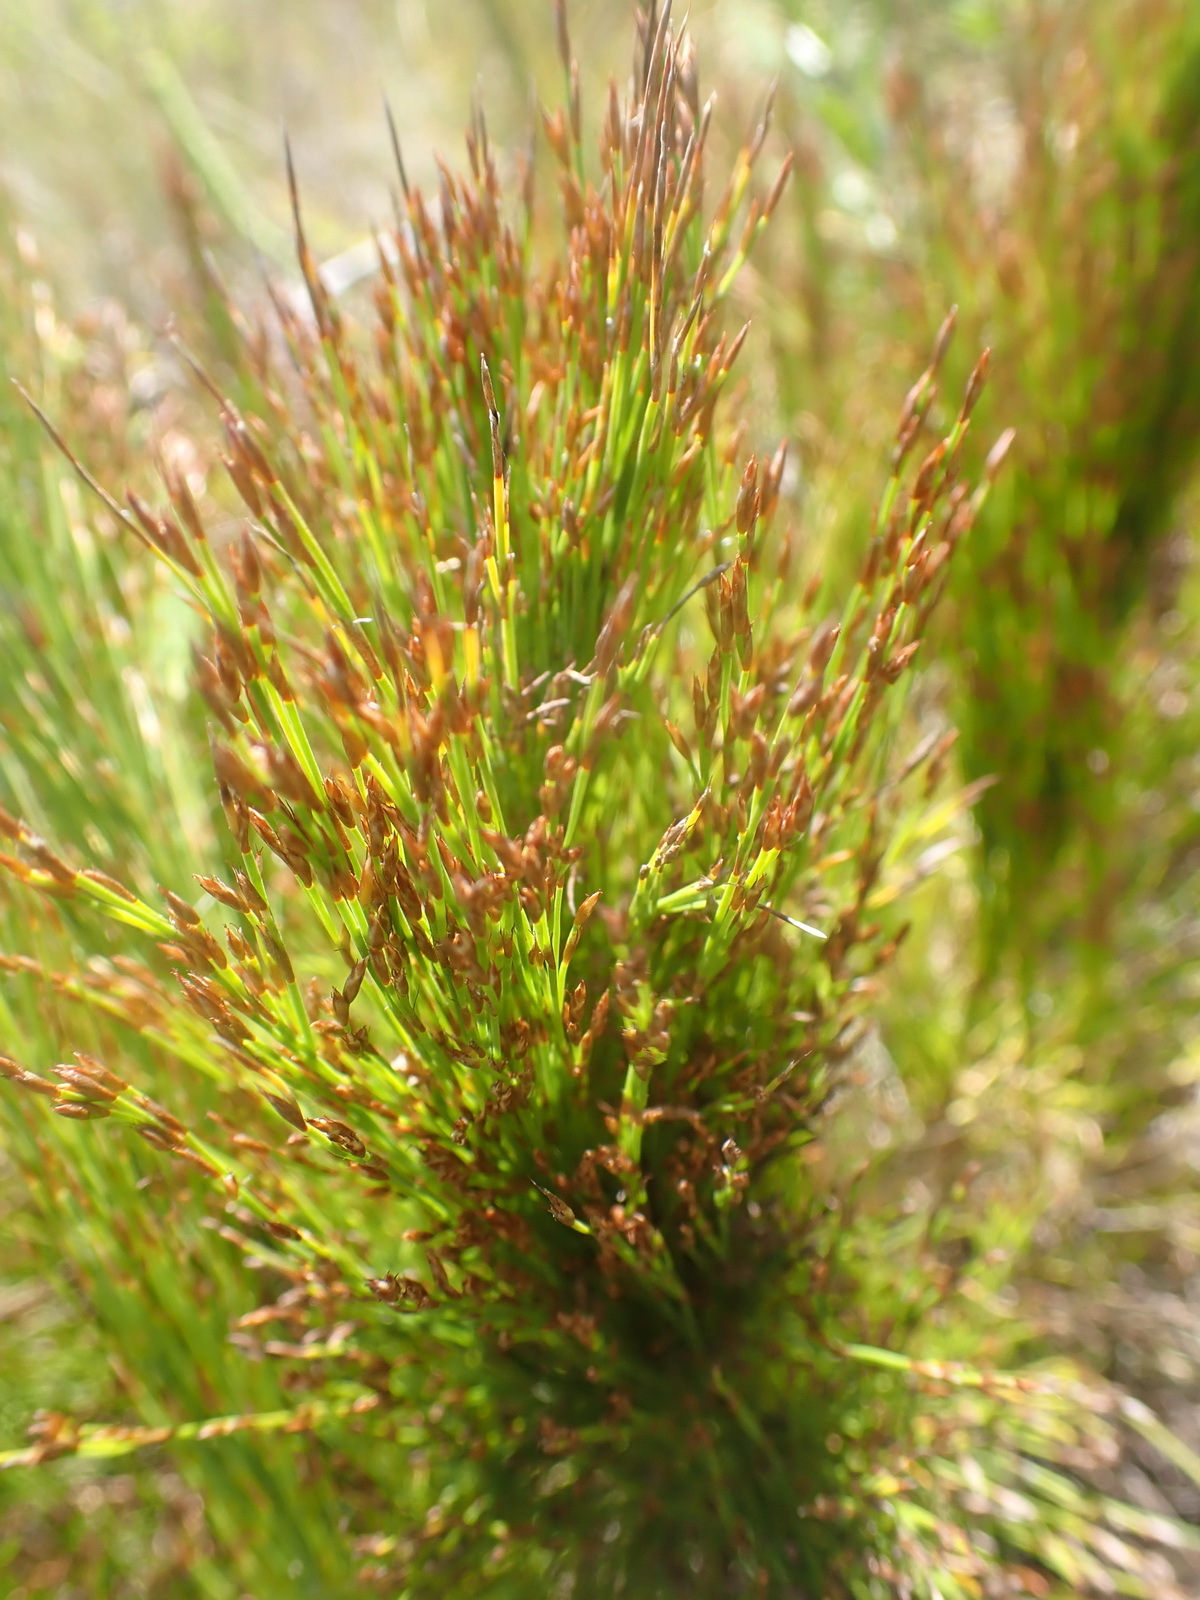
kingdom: Plantae
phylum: Tracheophyta
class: Liliopsida
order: Poales
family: Restionaceae
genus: Restio
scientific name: Restio leptoclados
